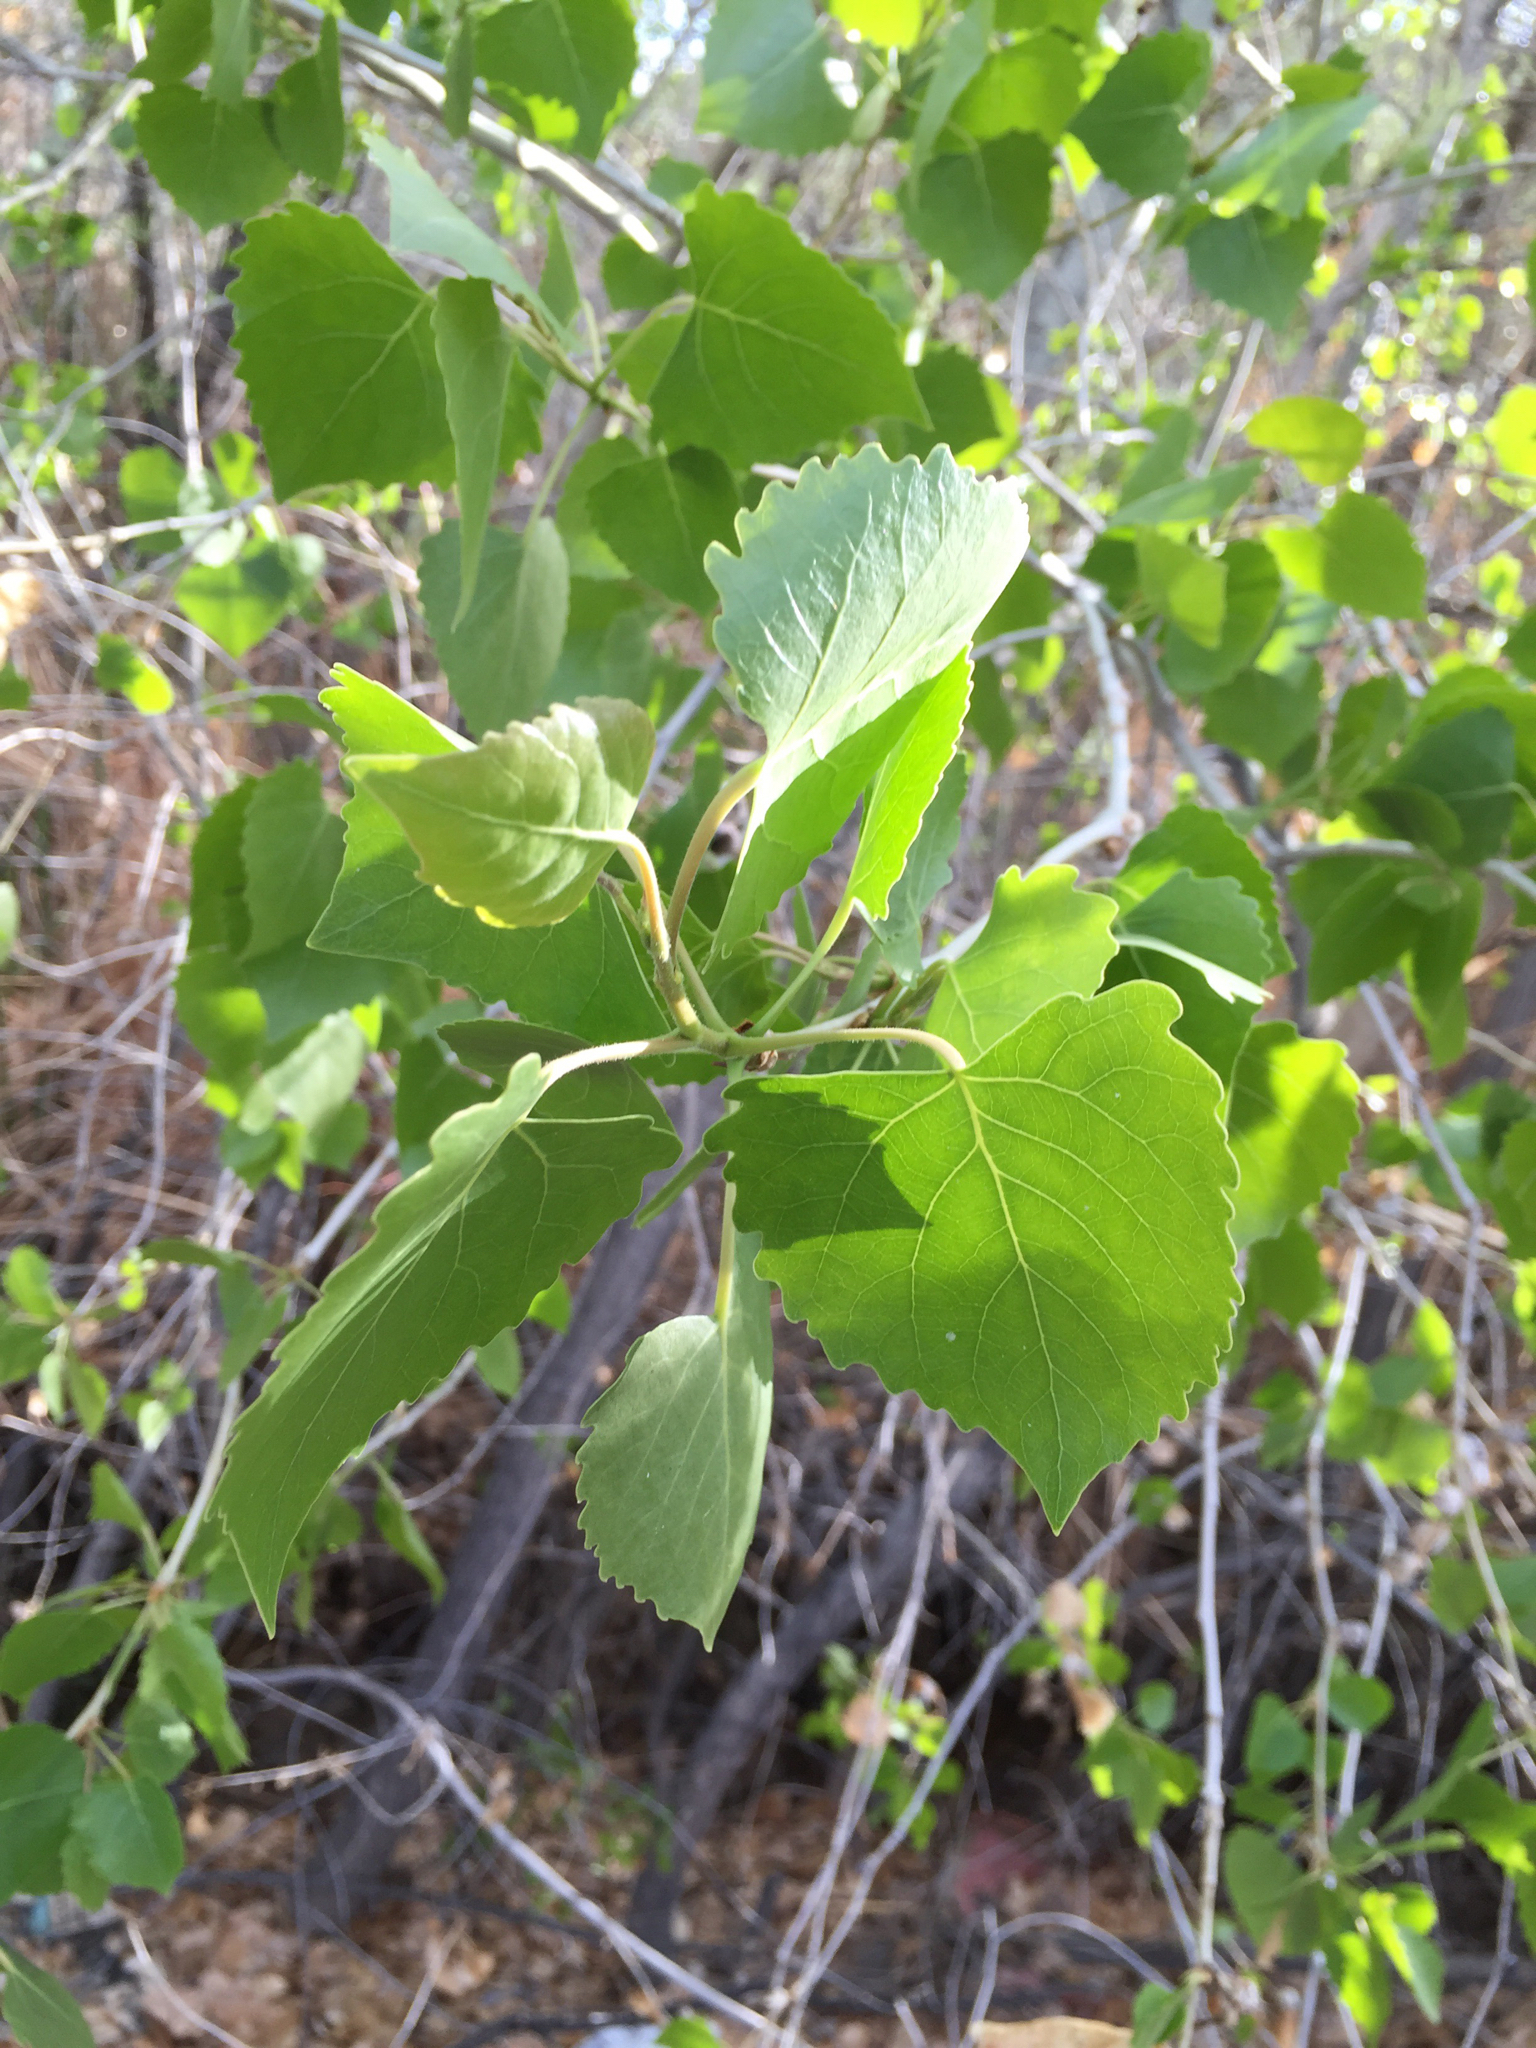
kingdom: Plantae
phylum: Tracheophyta
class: Magnoliopsida
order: Malpighiales
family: Salicaceae
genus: Populus
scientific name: Populus fremontii
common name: Fremont's cottonwood
